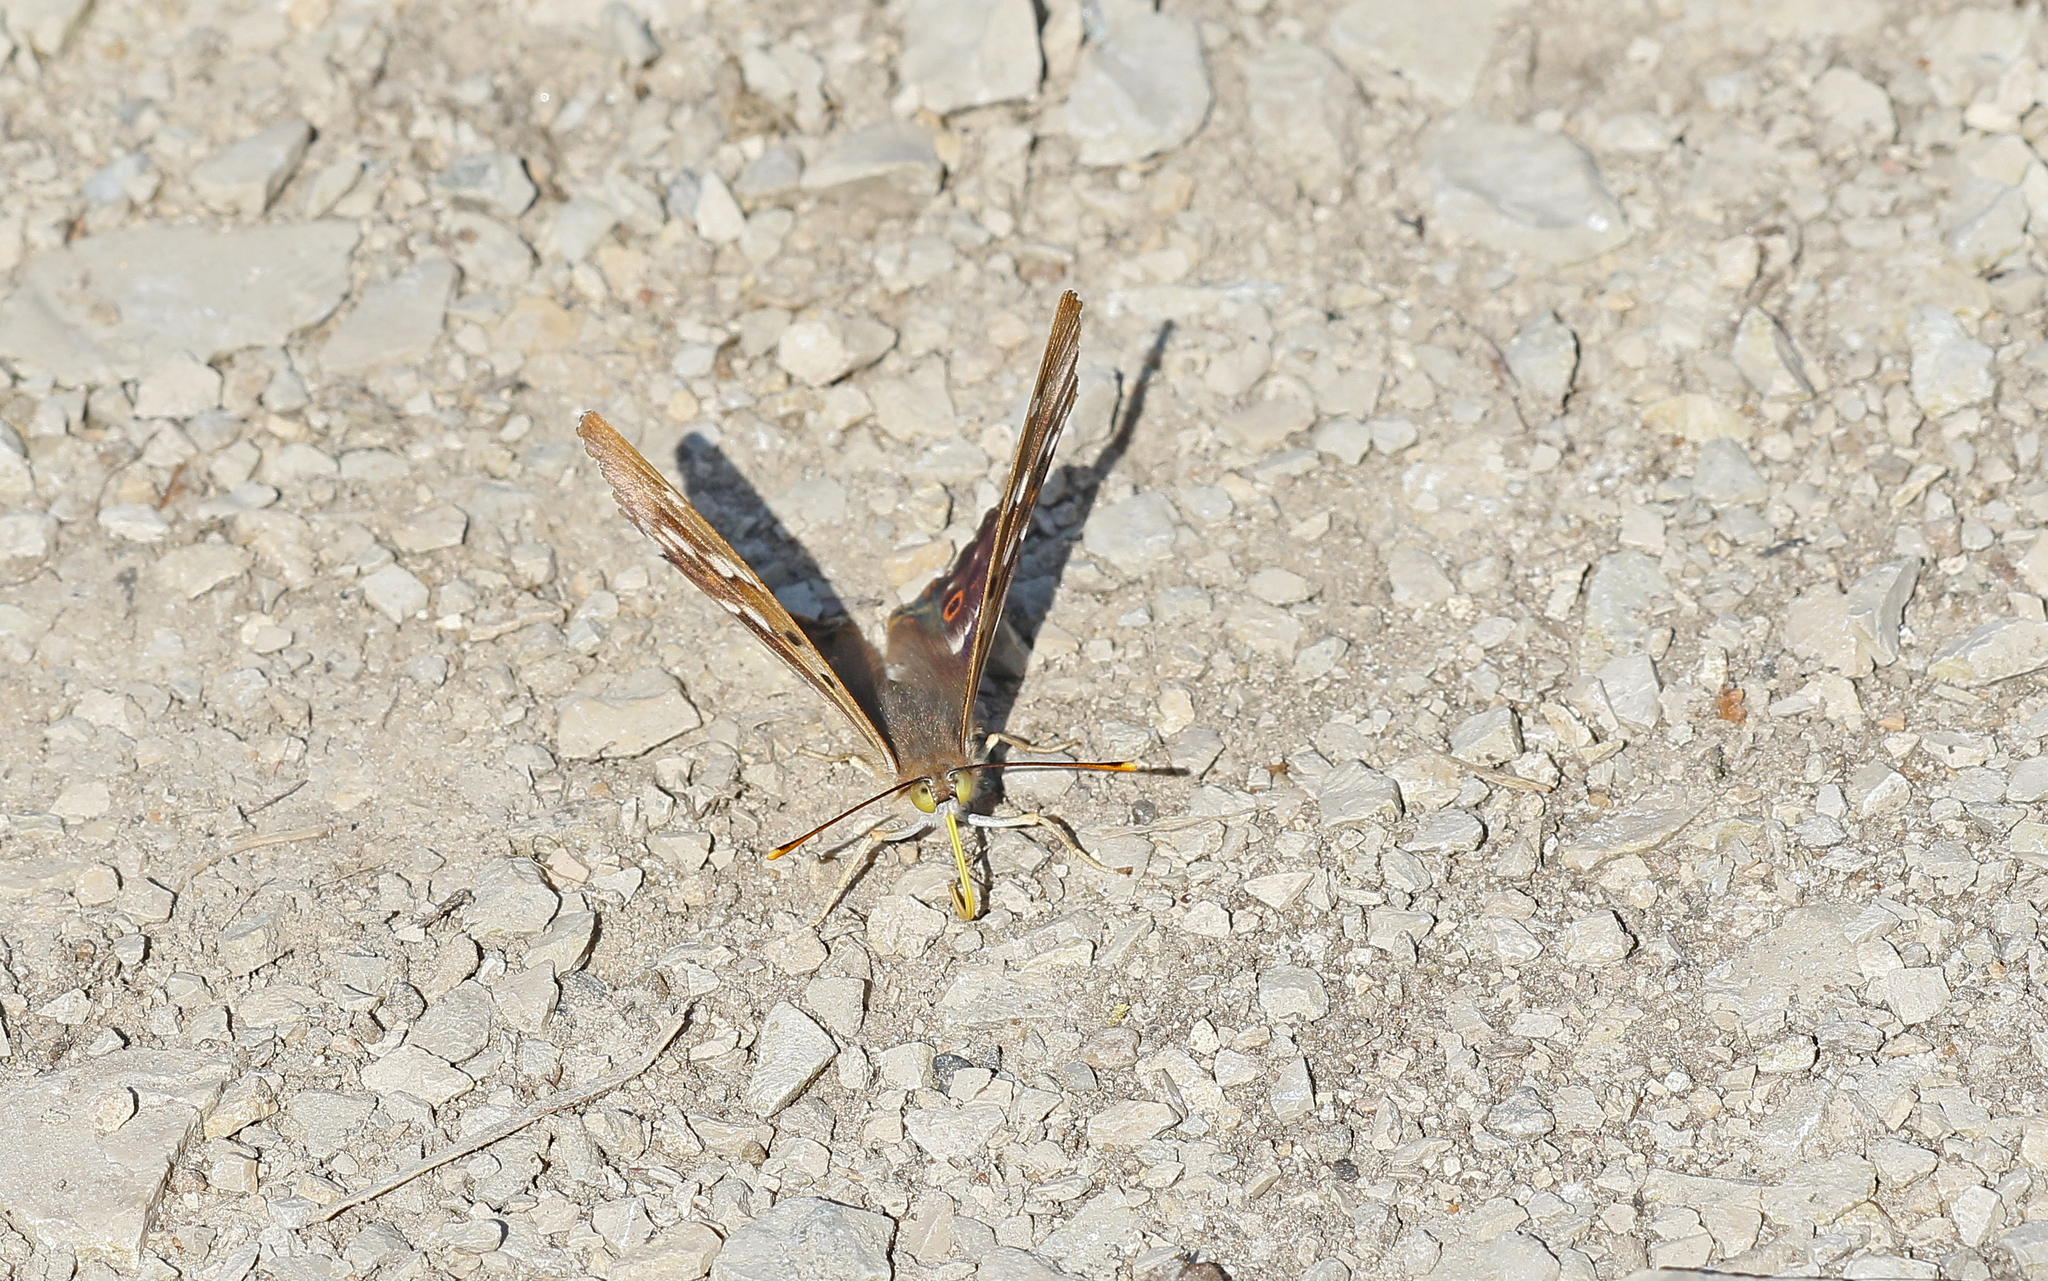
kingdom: Animalia
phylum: Arthropoda
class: Insecta
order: Lepidoptera
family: Nymphalidae
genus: Apatura
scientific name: Apatura ilia
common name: Lesser purple emperor
